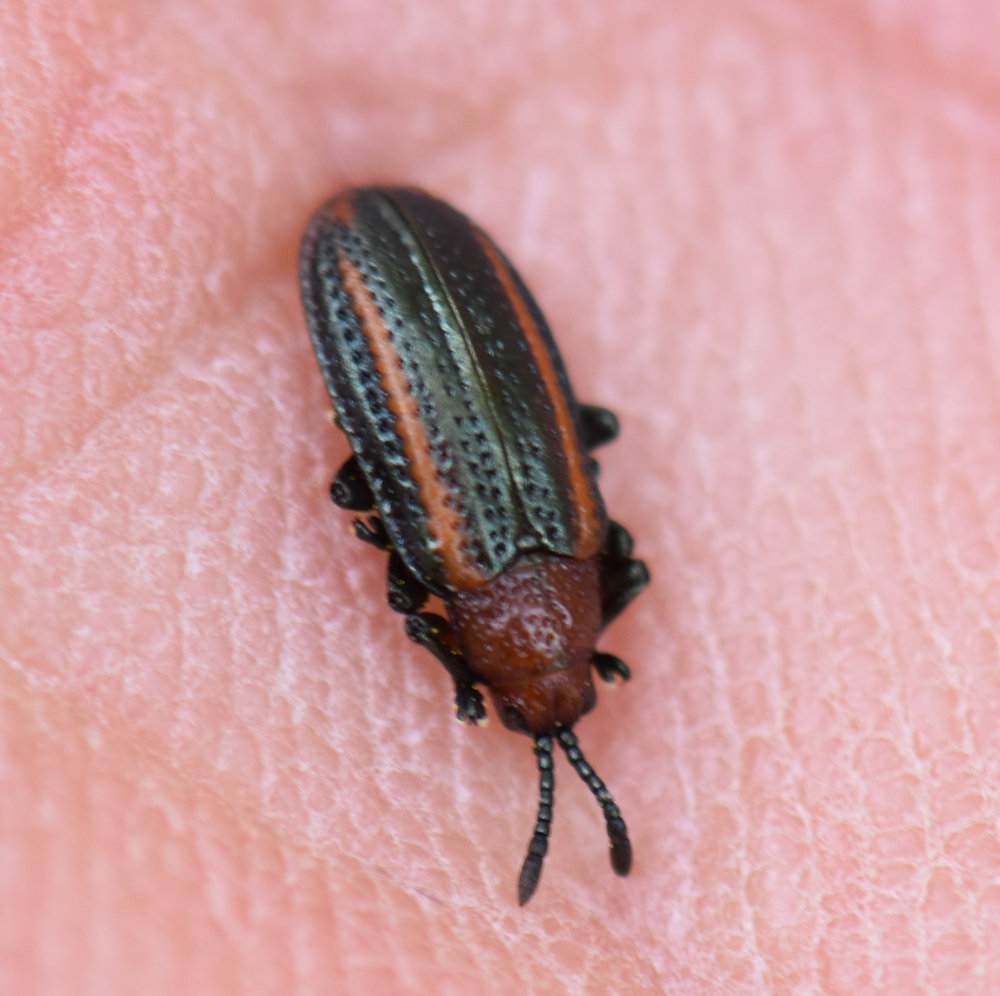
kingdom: Animalia
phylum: Arthropoda
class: Insecta
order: Coleoptera
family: Chrysomelidae
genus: Microrhopala
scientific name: Microrhopala vittata
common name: Goldenrod leaf miner beetle
